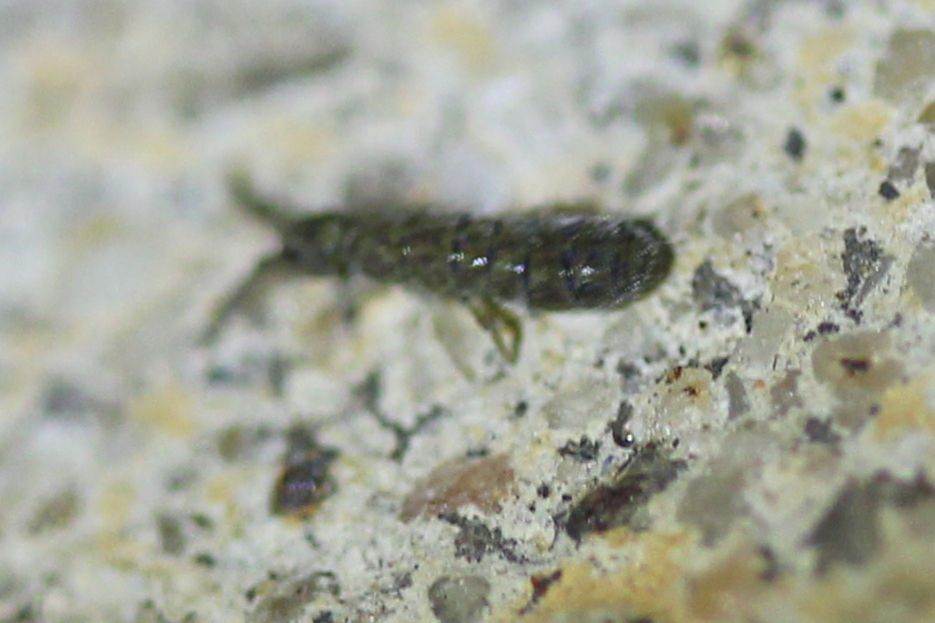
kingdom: Animalia
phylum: Arthropoda
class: Collembola
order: Entomobryomorpha
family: Isotomidae
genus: Isotoma
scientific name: Isotoma delta
